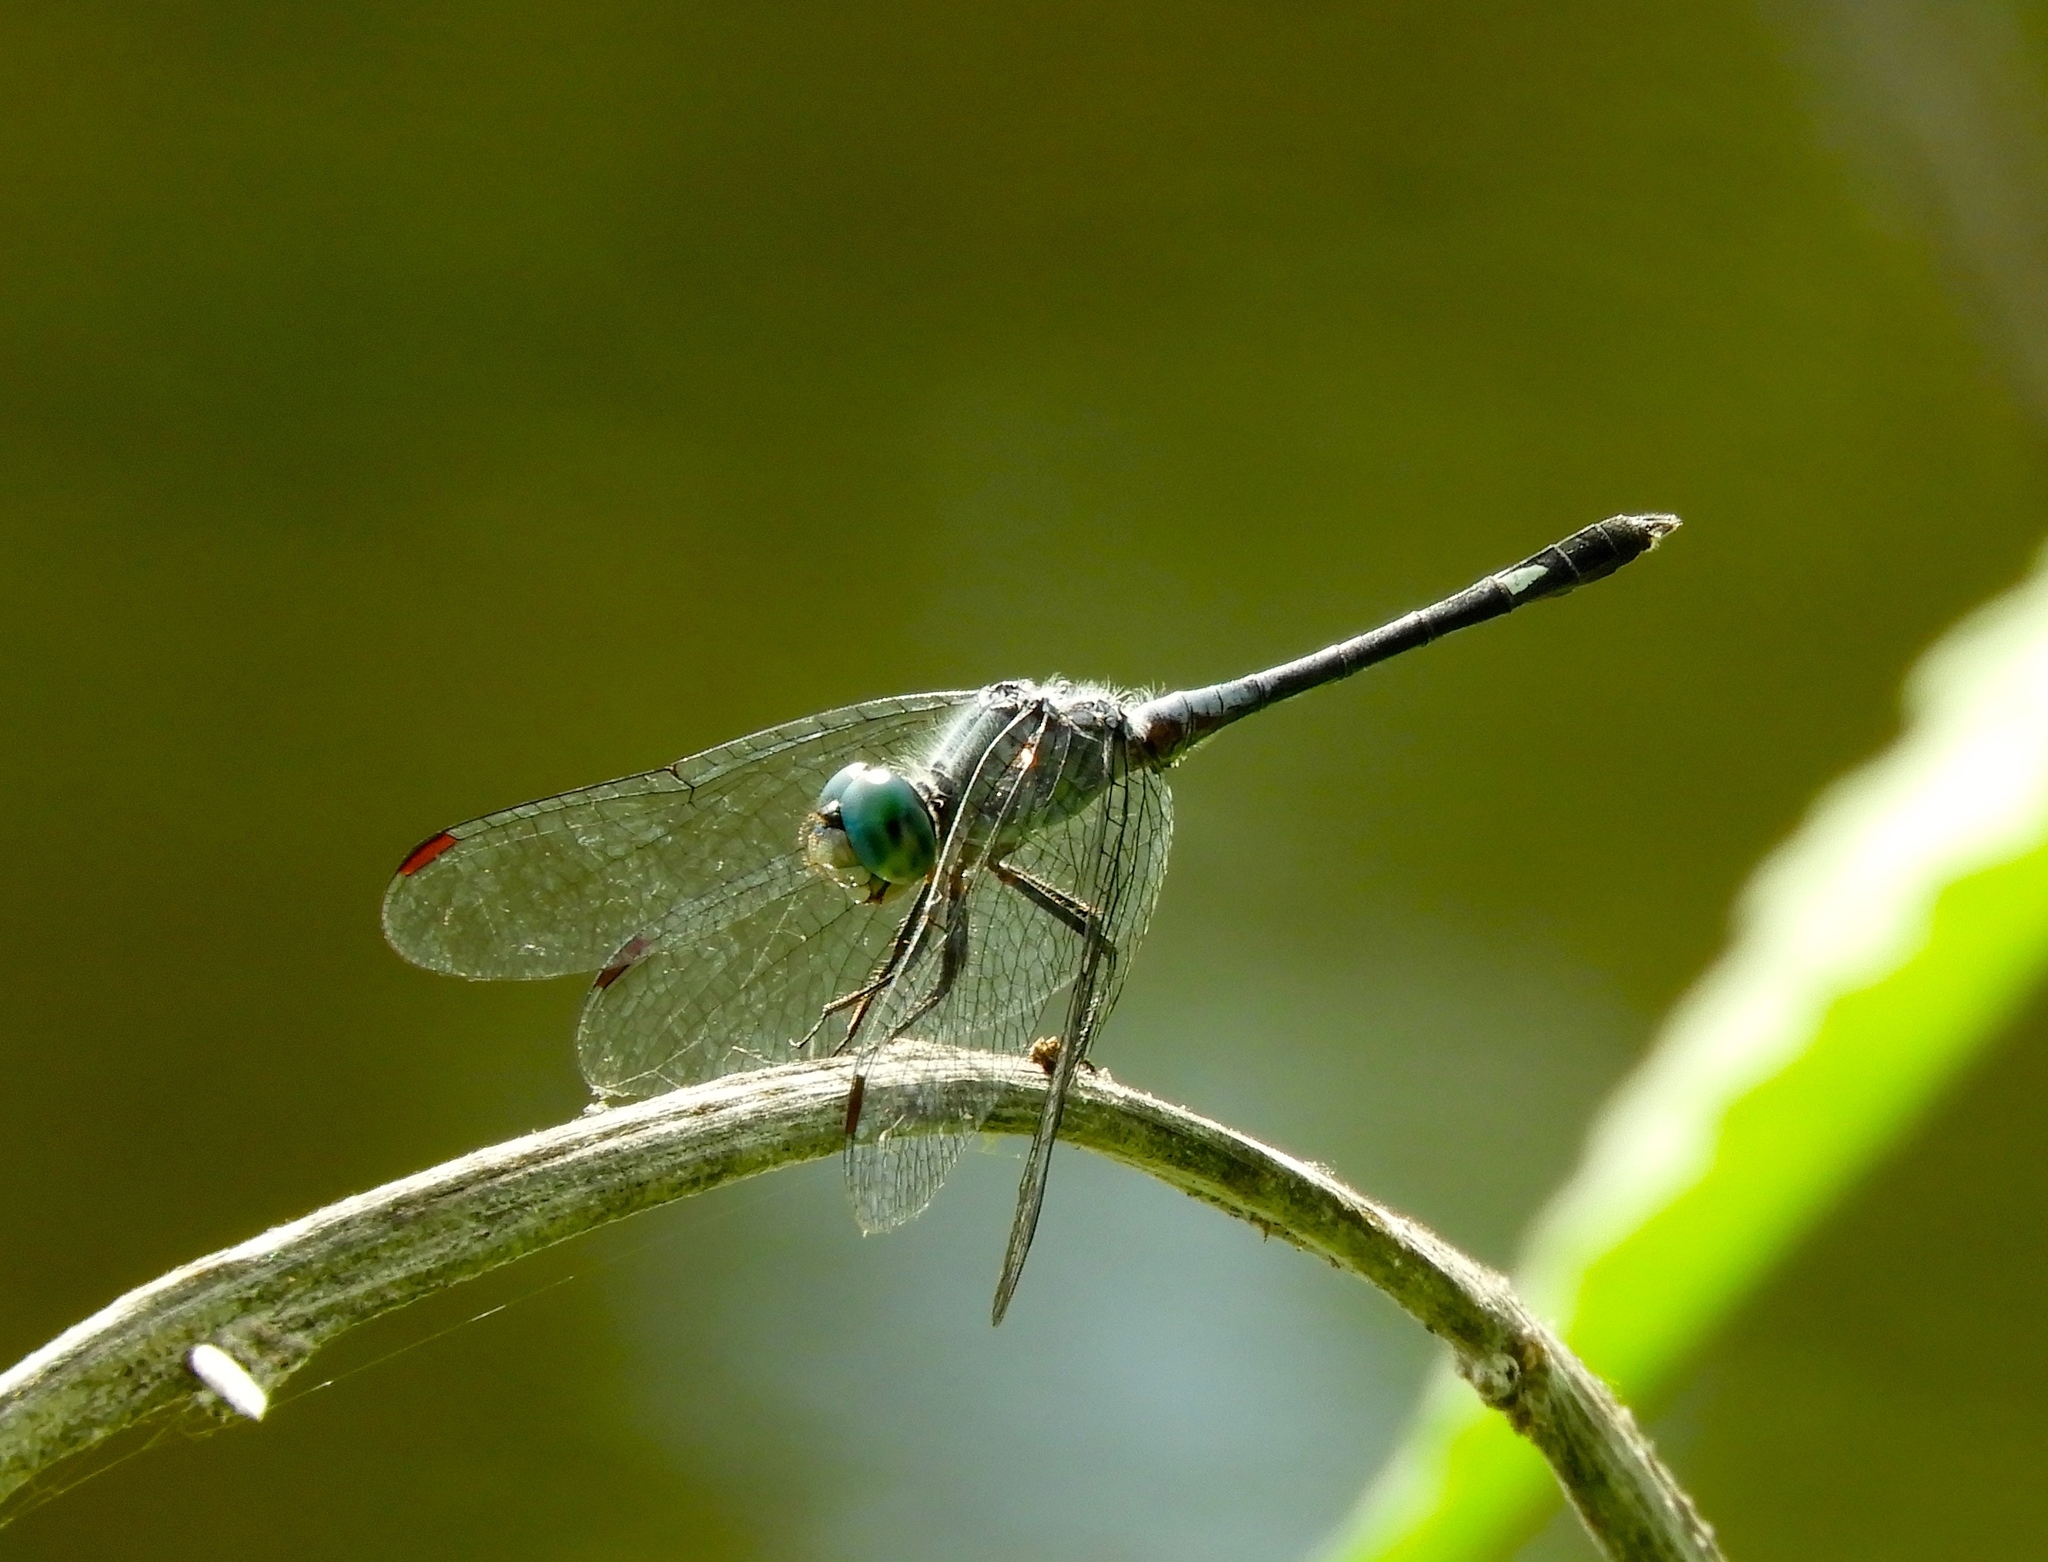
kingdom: Animalia
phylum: Arthropoda
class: Insecta
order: Odonata
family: Libellulidae
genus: Micrathyria
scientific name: Micrathyria aequalis
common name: Spot-tailed dasher
